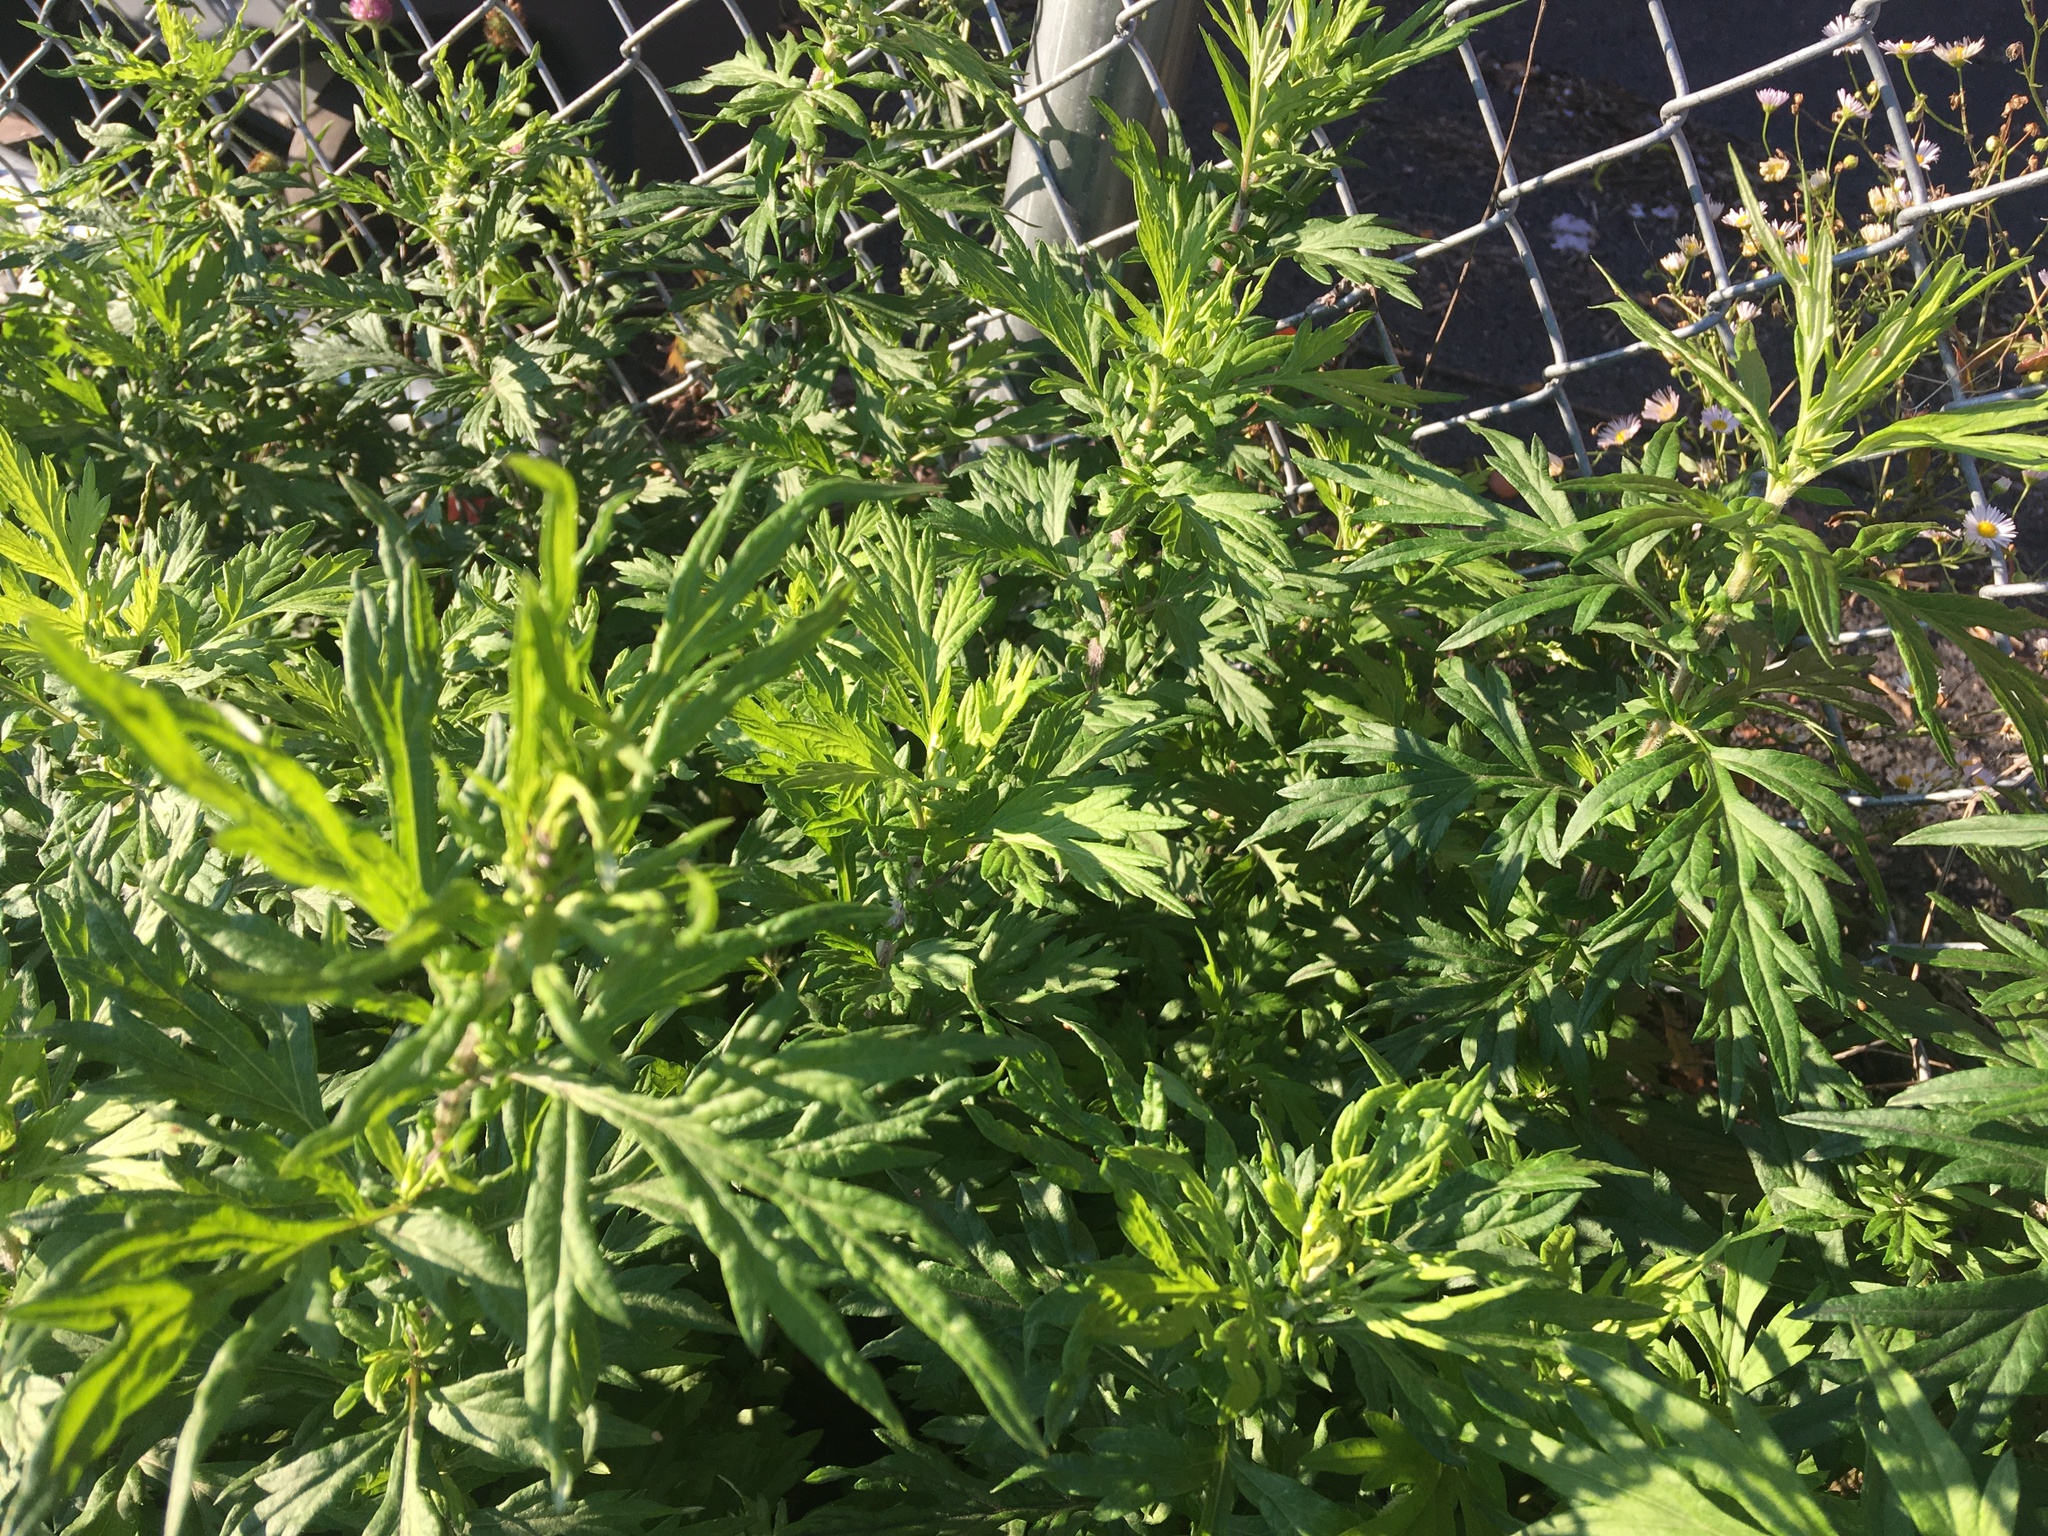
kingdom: Plantae
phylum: Tracheophyta
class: Magnoliopsida
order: Asterales
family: Asteraceae
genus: Artemisia
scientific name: Artemisia vulgaris
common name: Mugwort
